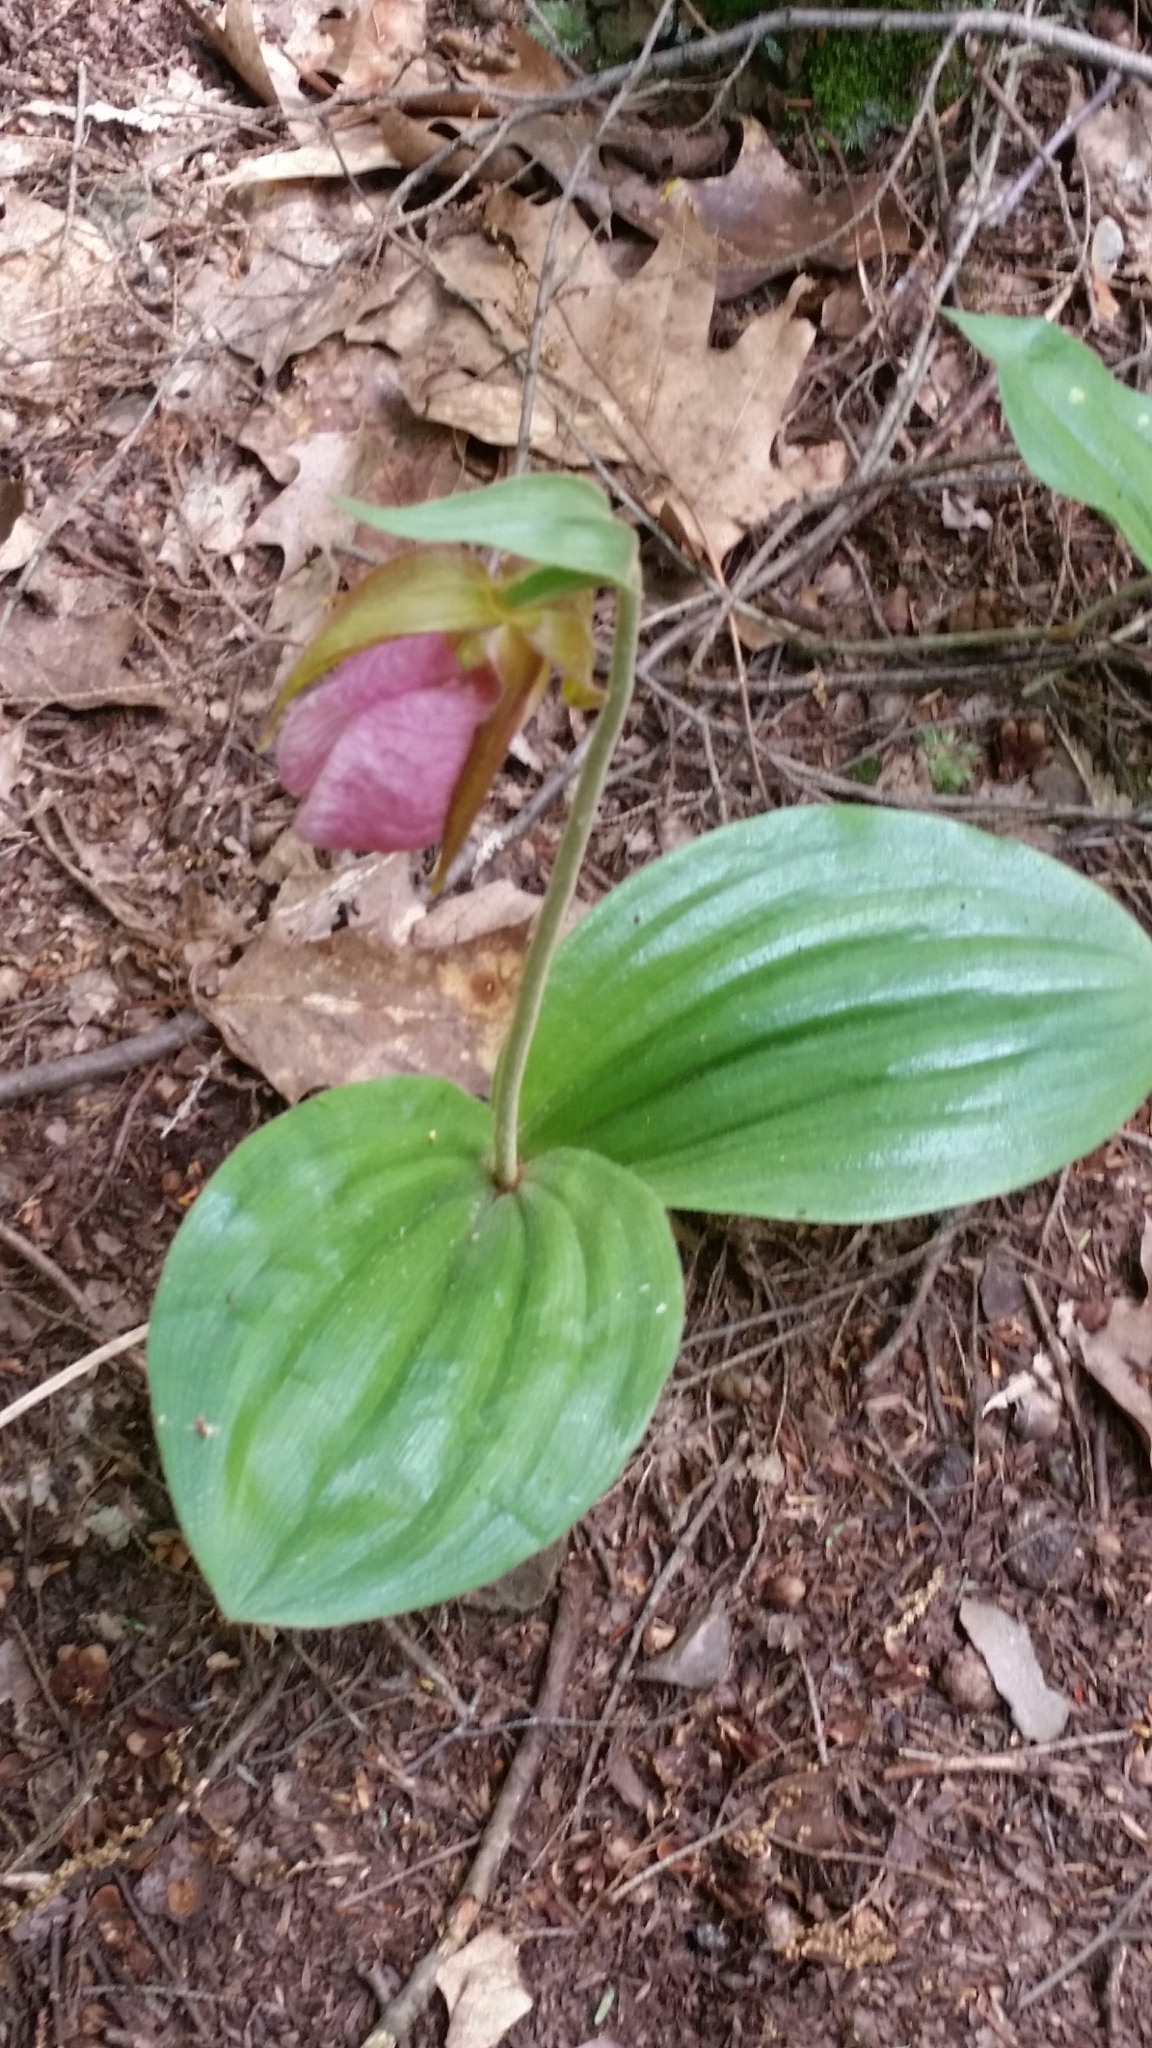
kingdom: Plantae
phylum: Tracheophyta
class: Liliopsida
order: Asparagales
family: Orchidaceae
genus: Cypripedium
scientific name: Cypripedium acaule
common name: Pink lady's-slipper
